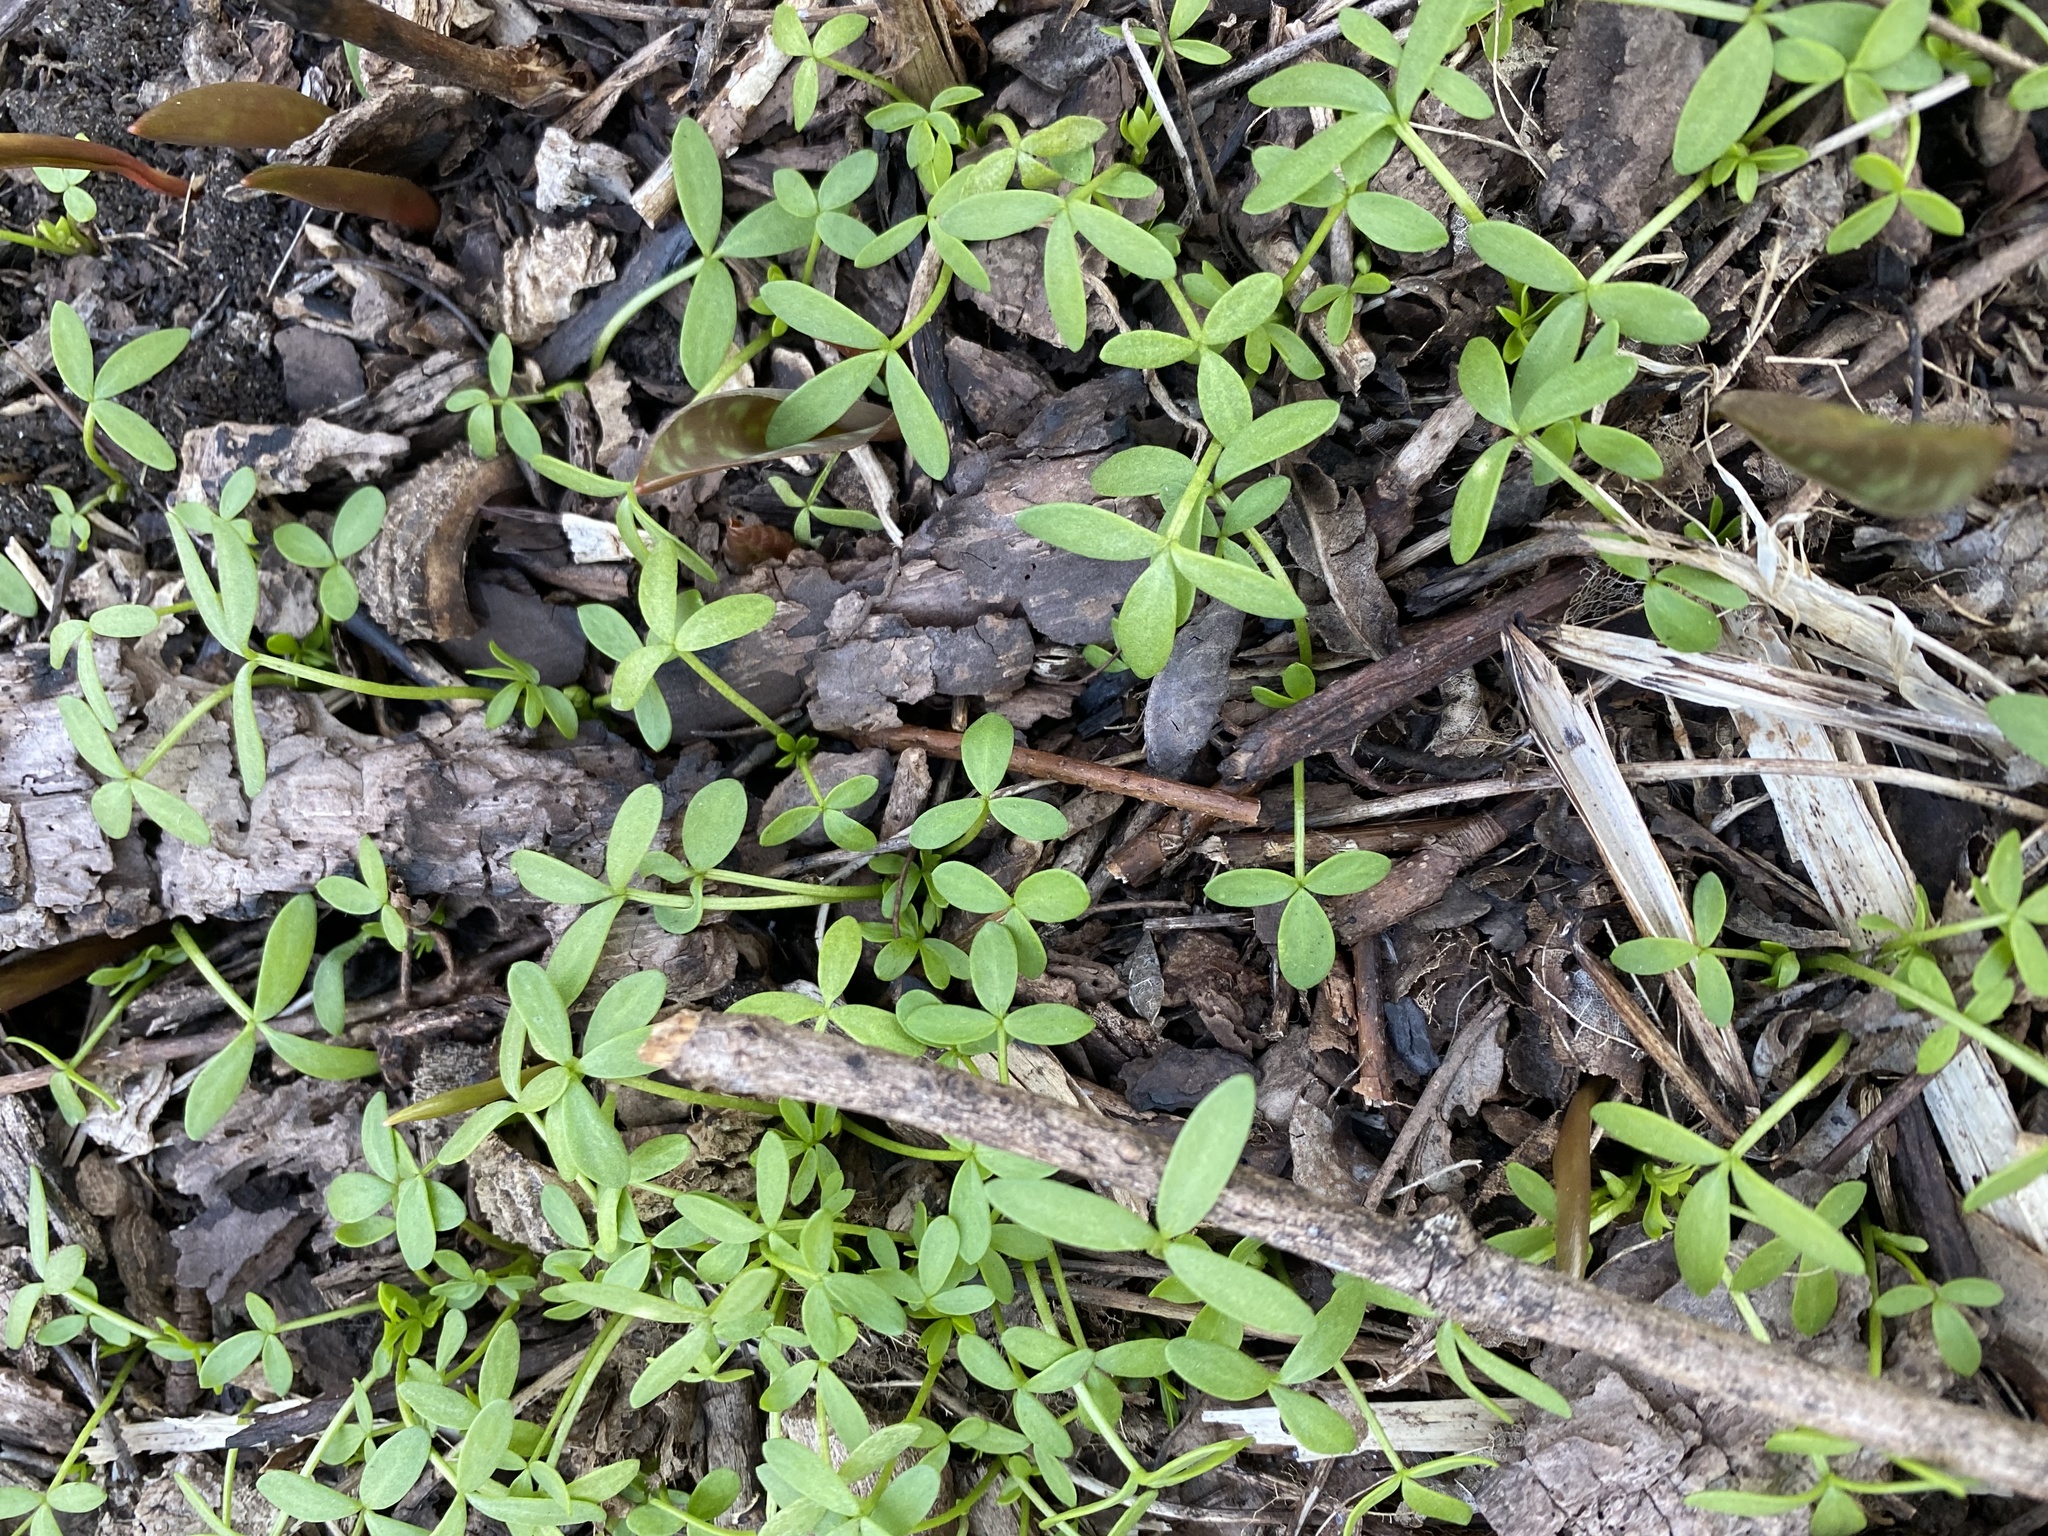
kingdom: Plantae
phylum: Tracheophyta
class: Magnoliopsida
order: Brassicales
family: Limnanthaceae
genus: Floerkea
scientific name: Floerkea proserpinacoides
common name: False mermaid
